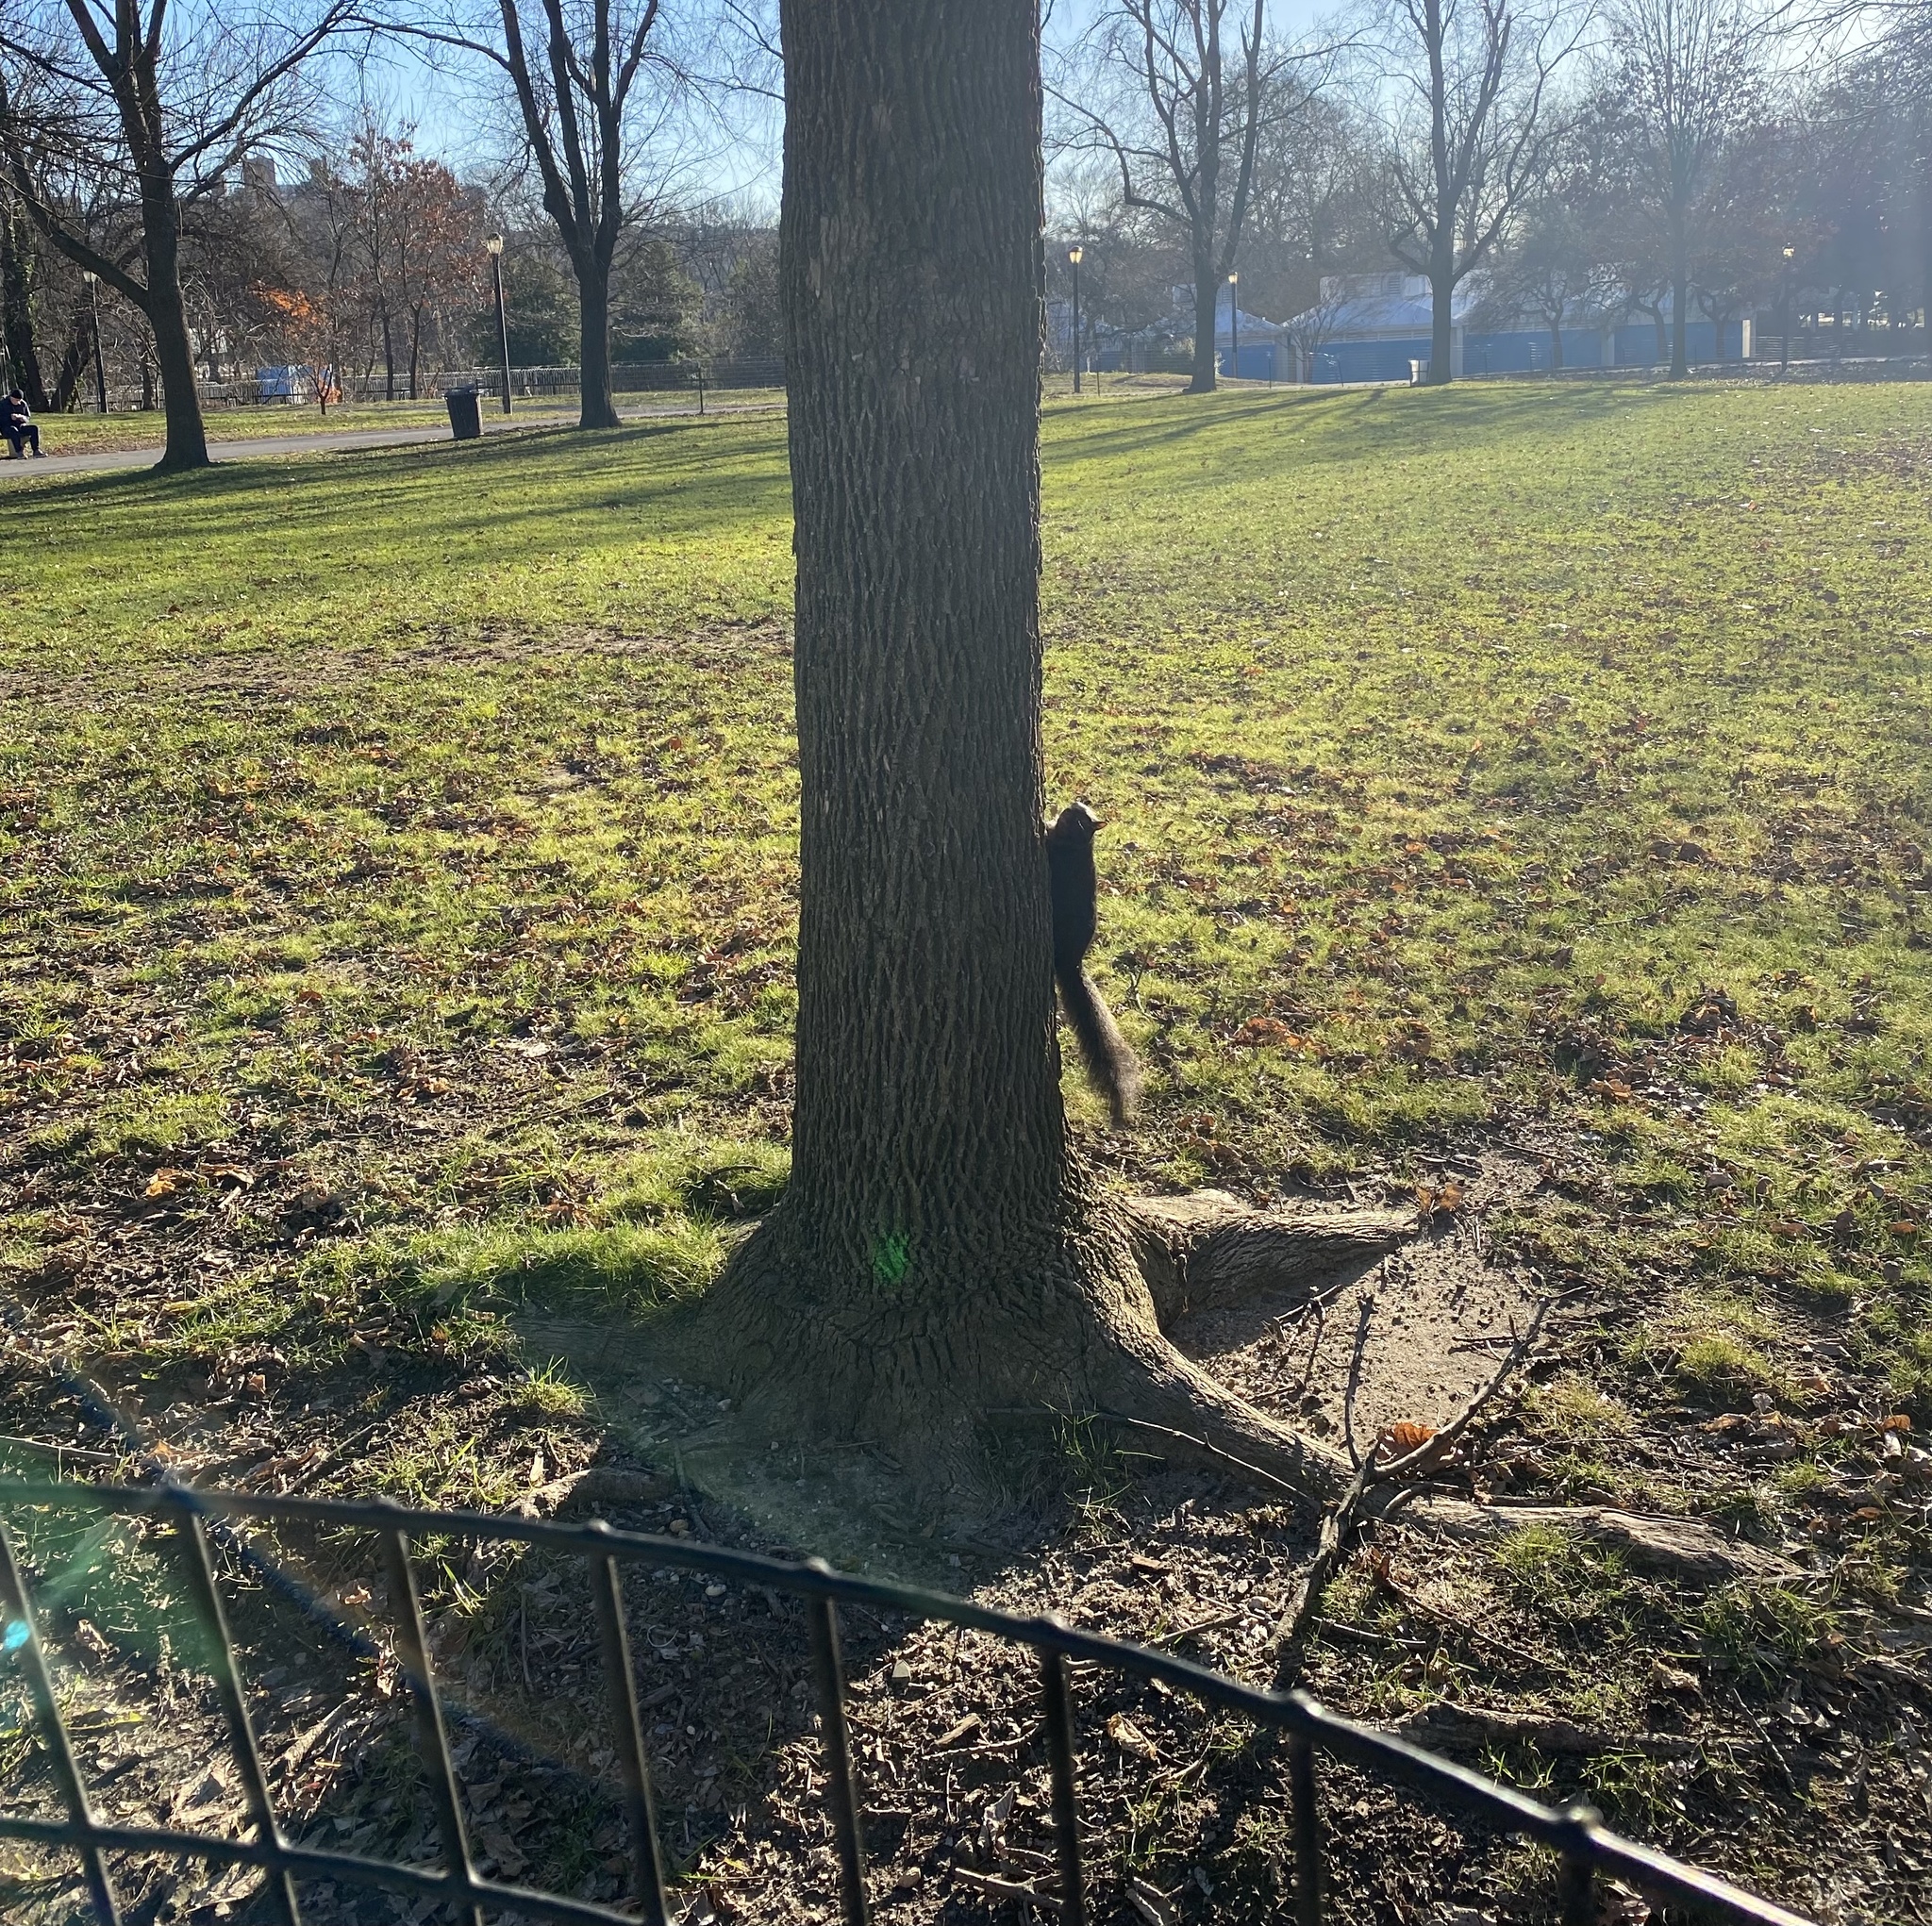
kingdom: Animalia
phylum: Chordata
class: Mammalia
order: Rodentia
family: Sciuridae
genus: Sciurus
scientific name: Sciurus carolinensis
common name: Eastern gray squirrel
